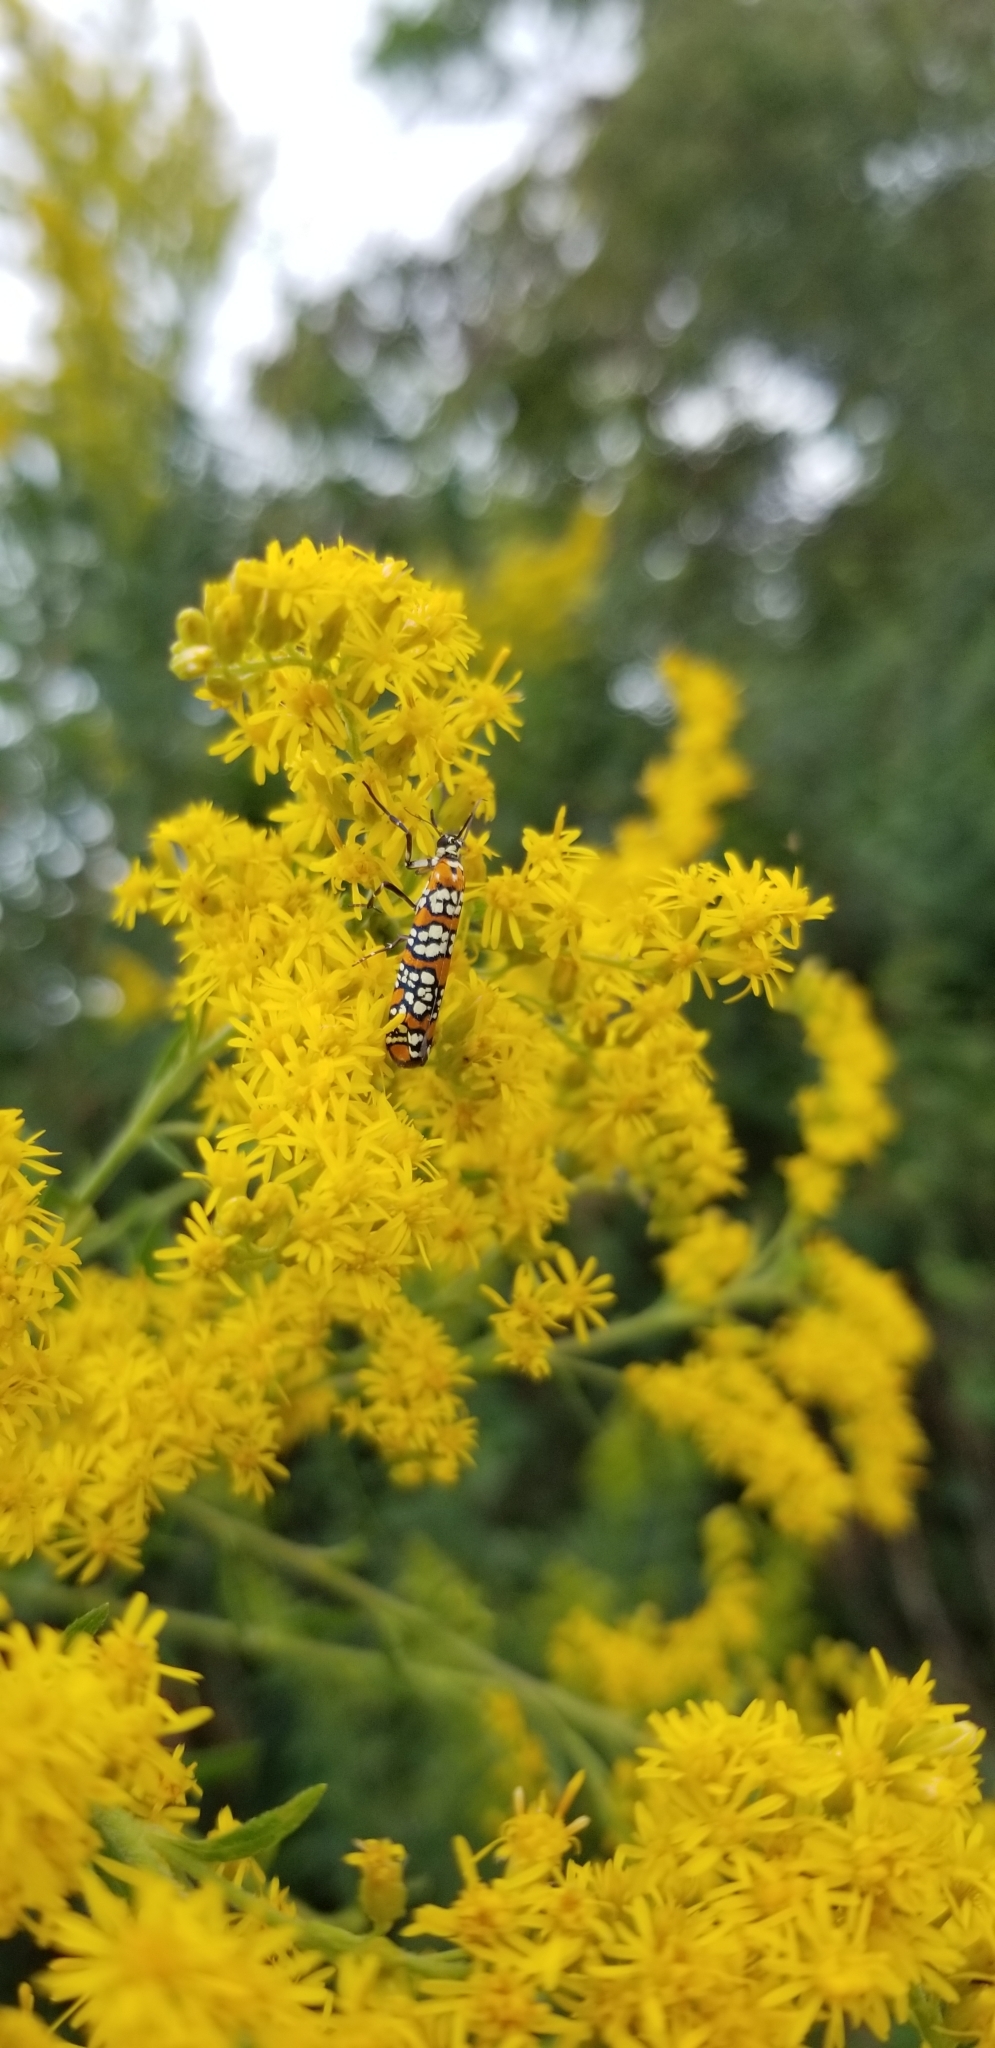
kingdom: Animalia
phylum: Arthropoda
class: Insecta
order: Lepidoptera
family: Attevidae
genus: Atteva
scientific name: Atteva punctella
